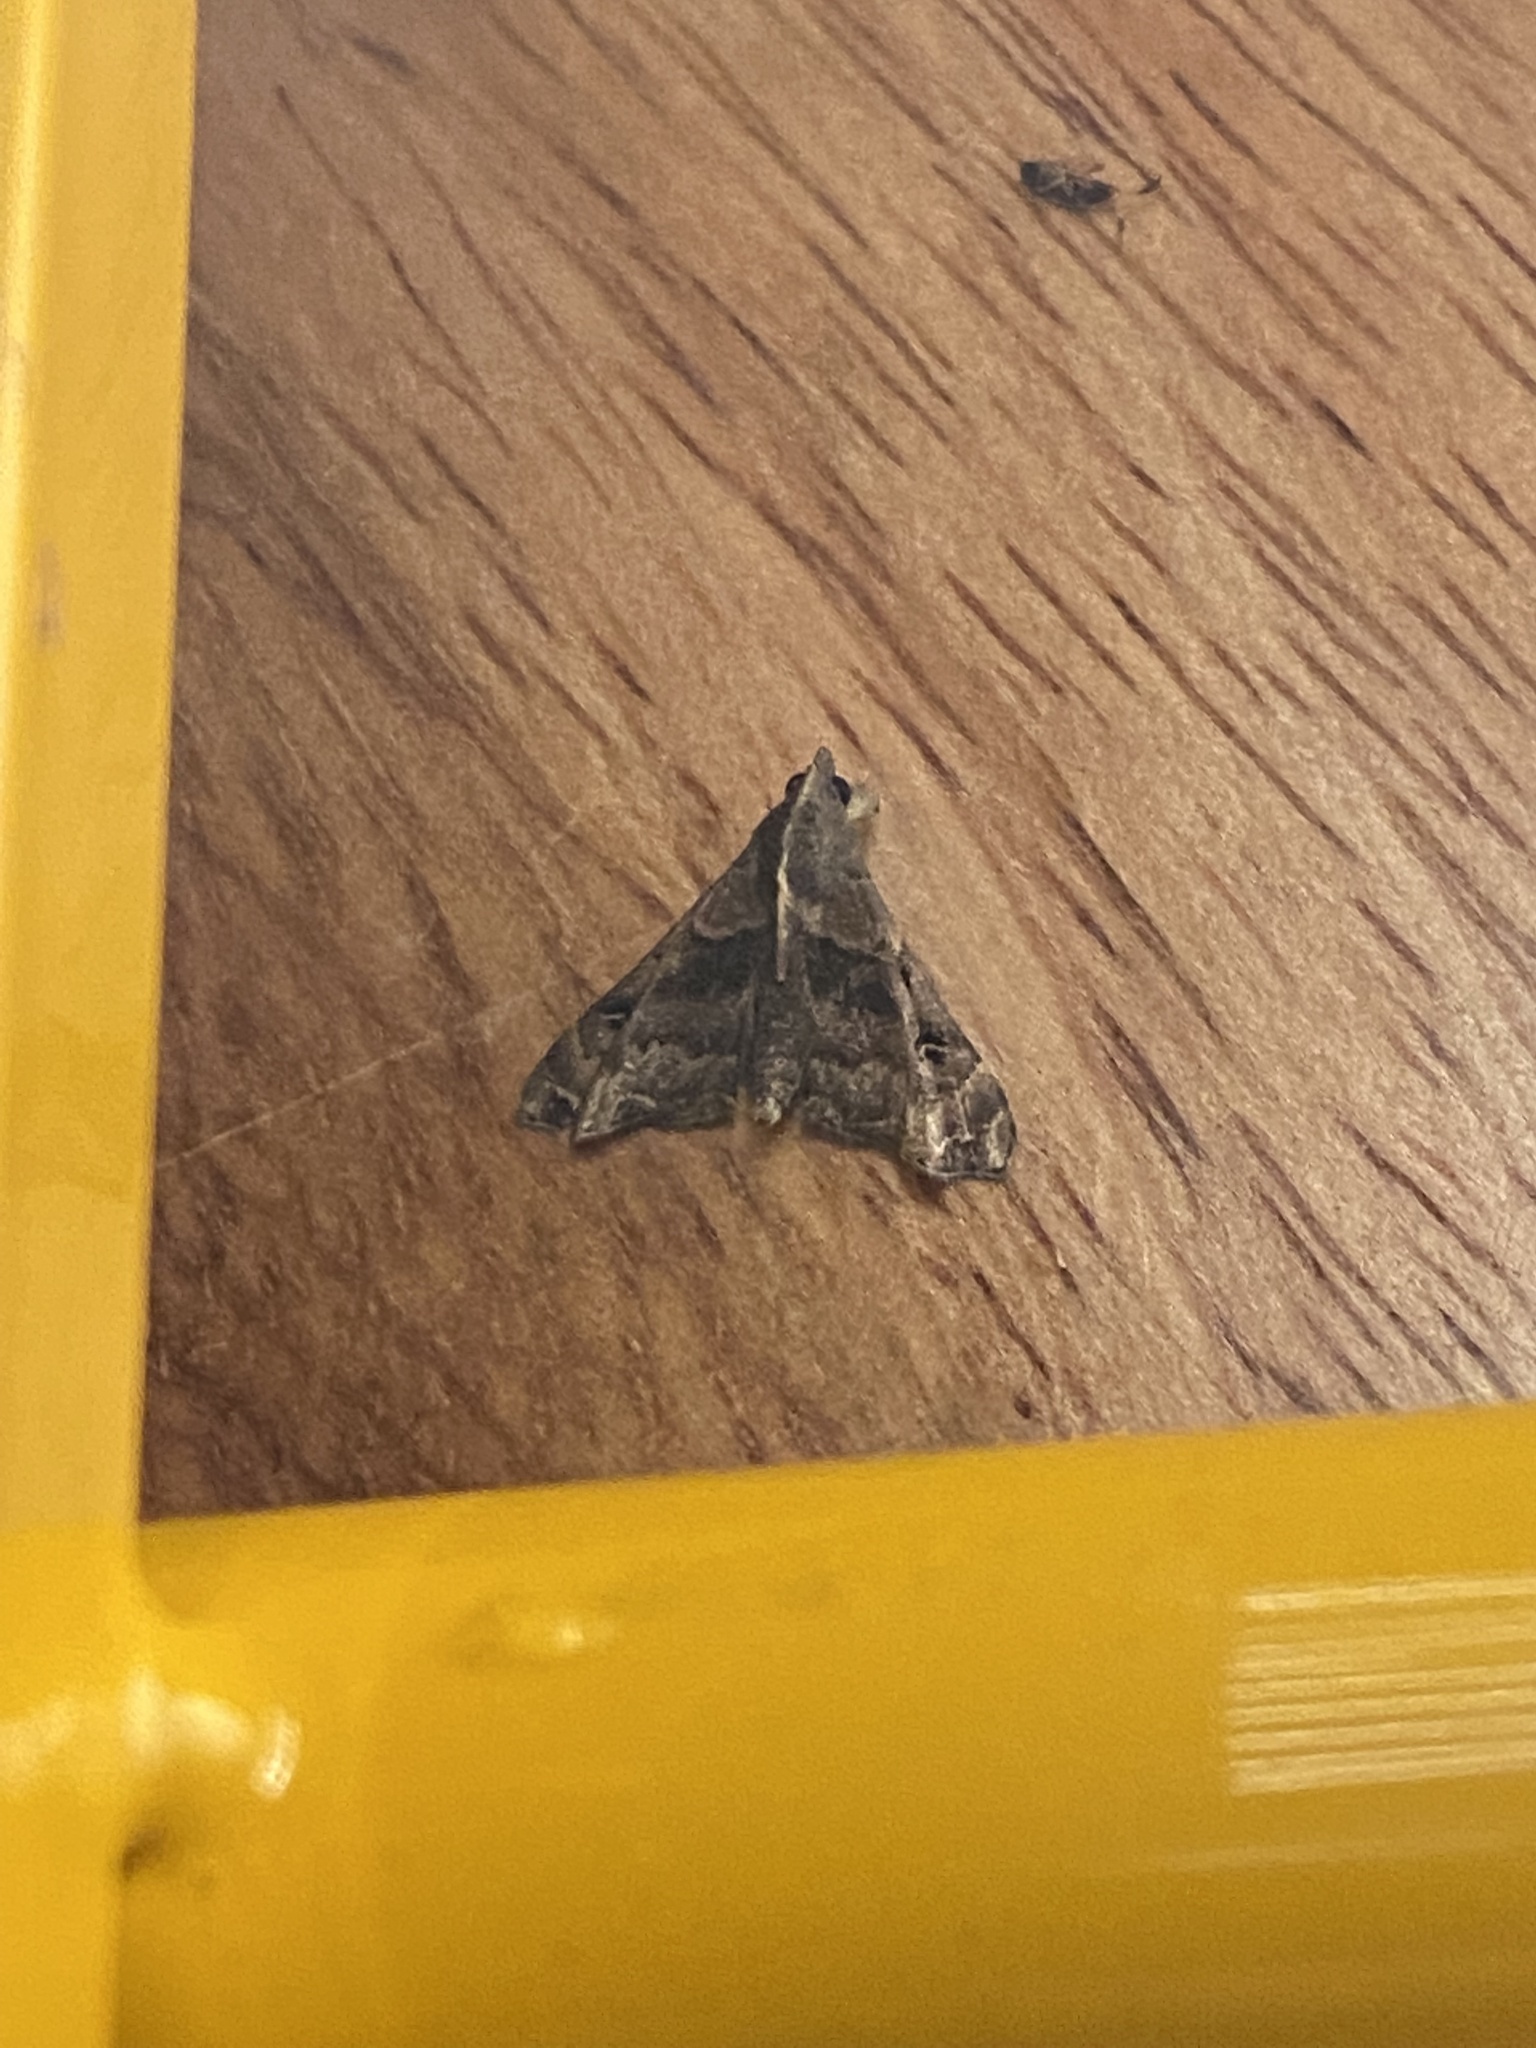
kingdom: Animalia
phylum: Arthropoda
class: Insecta
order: Lepidoptera
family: Erebidae
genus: Palthis
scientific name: Palthis asopialis
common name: Faint-spotted palthis moth
